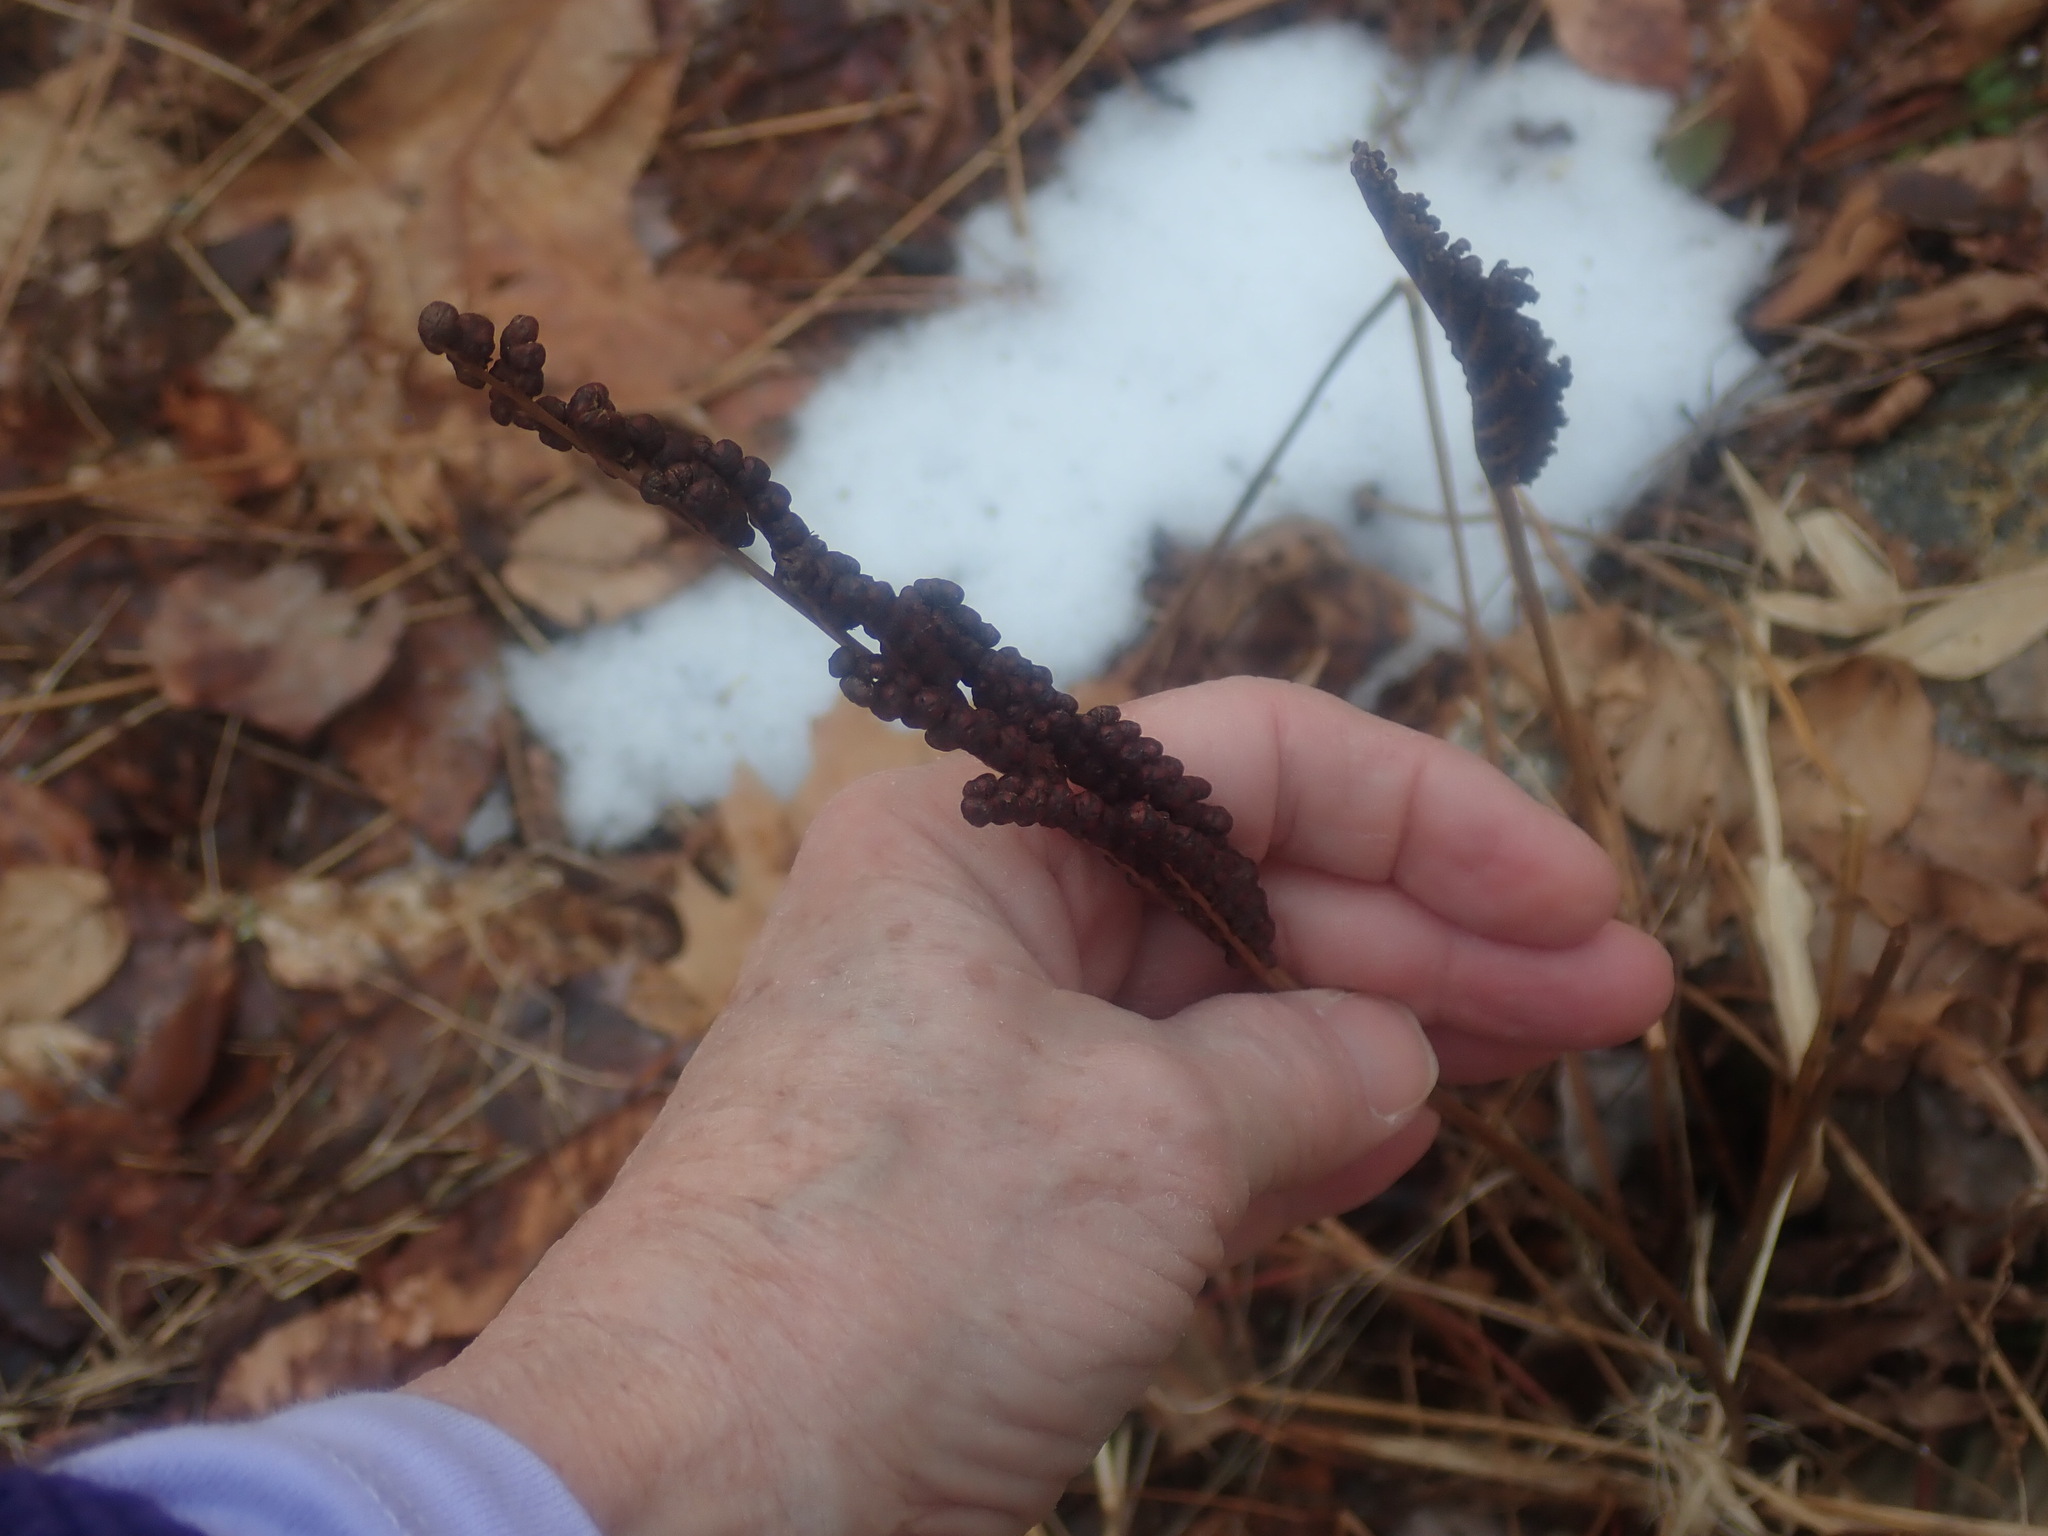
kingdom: Plantae
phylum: Tracheophyta
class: Polypodiopsida
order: Polypodiales
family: Onocleaceae
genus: Onoclea
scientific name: Onoclea sensibilis
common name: Sensitive fern
